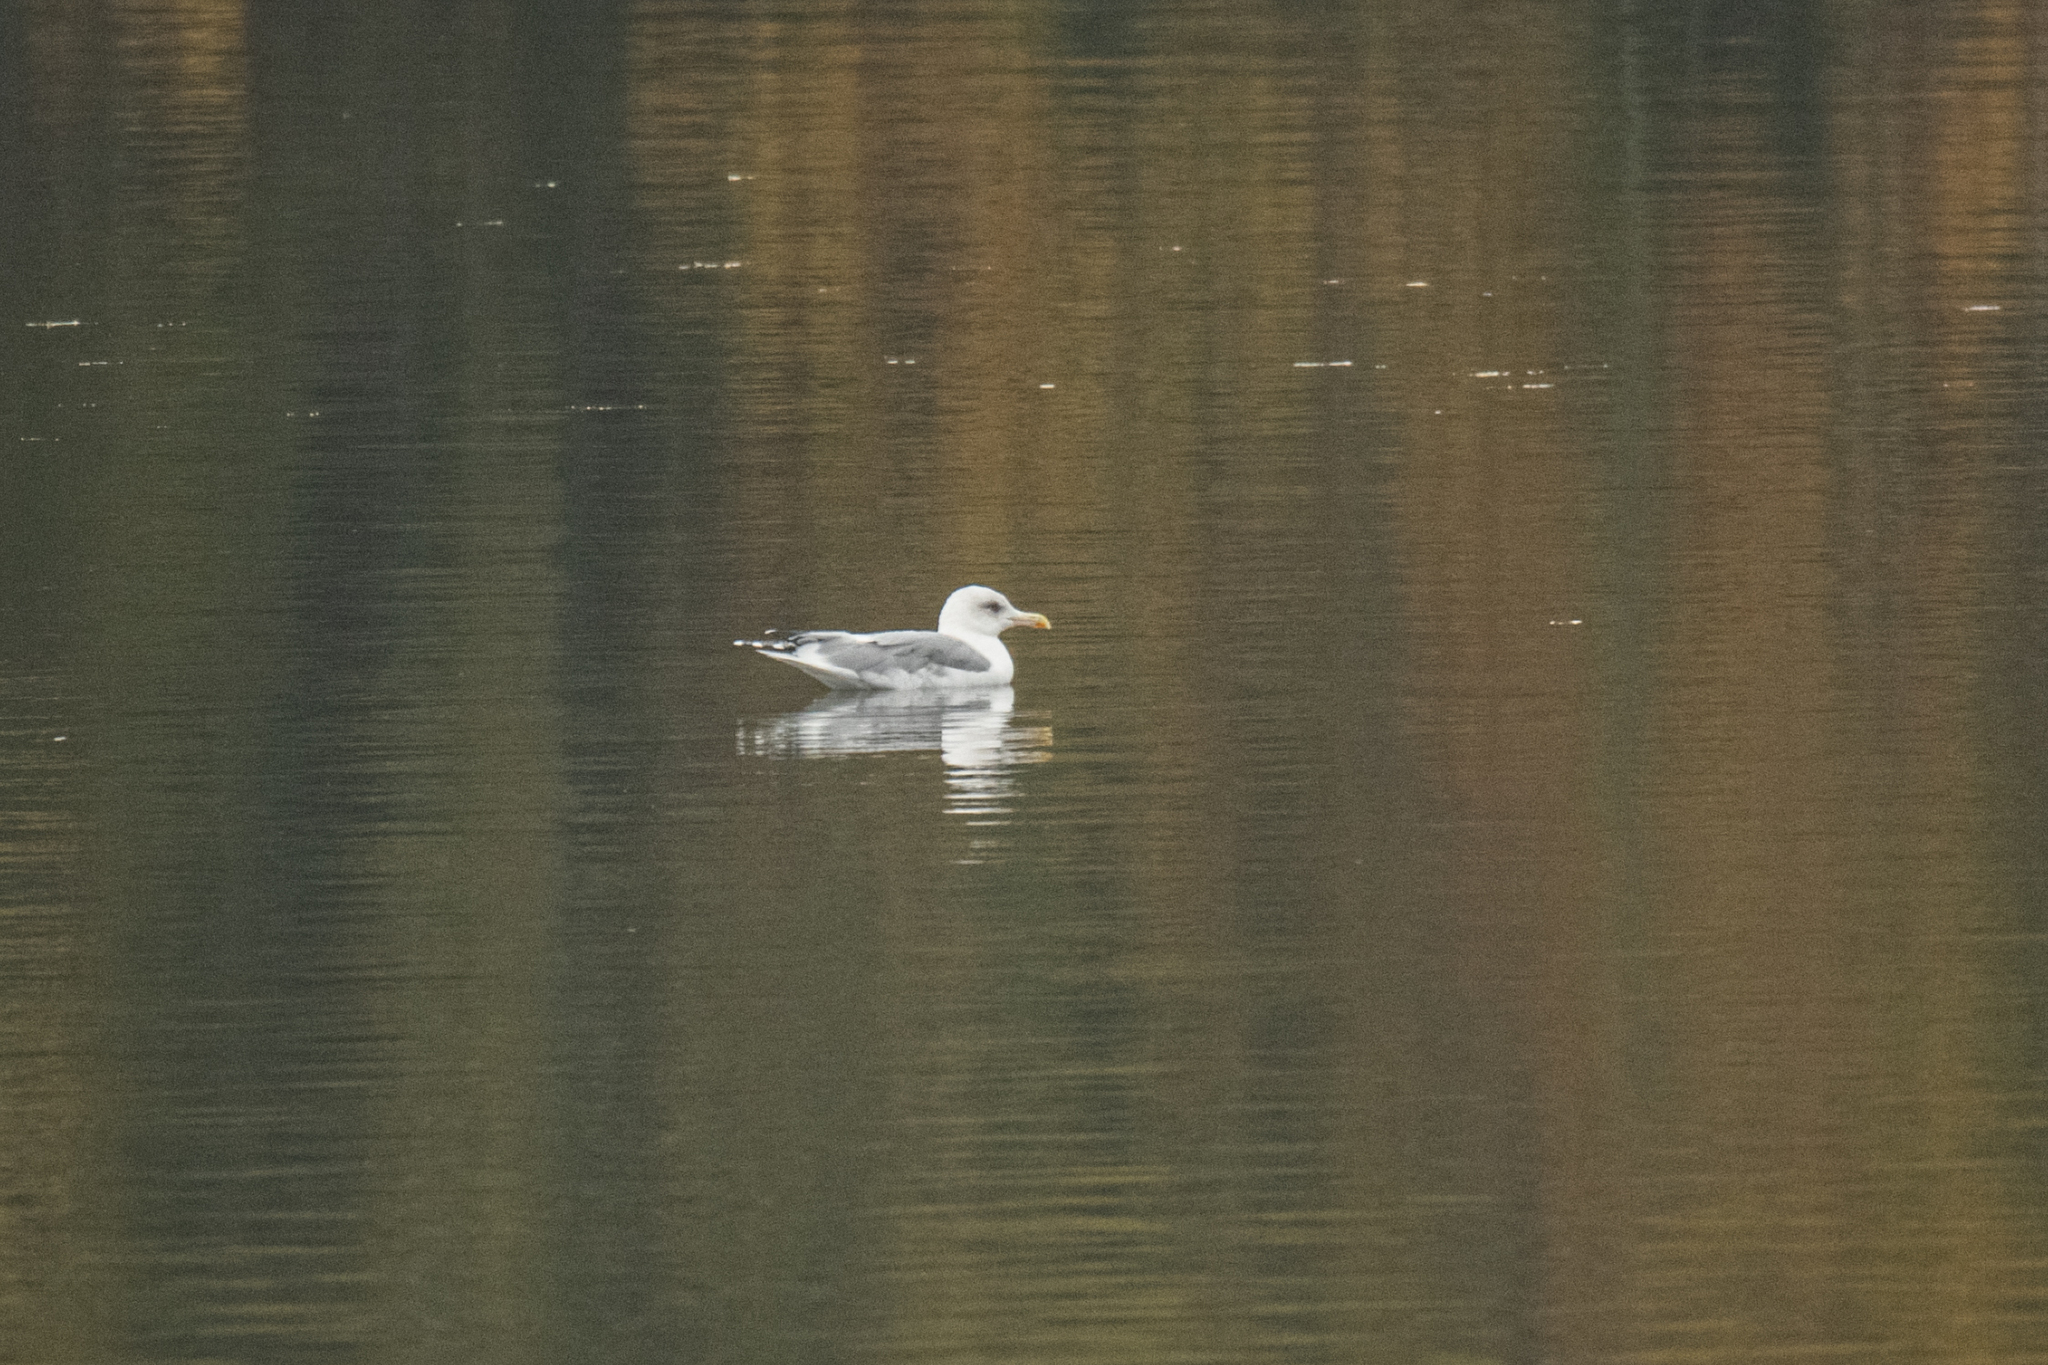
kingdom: Animalia
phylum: Chordata
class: Aves
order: Charadriiformes
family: Laridae
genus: Larus
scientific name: Larus argentatus
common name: Herring gull
